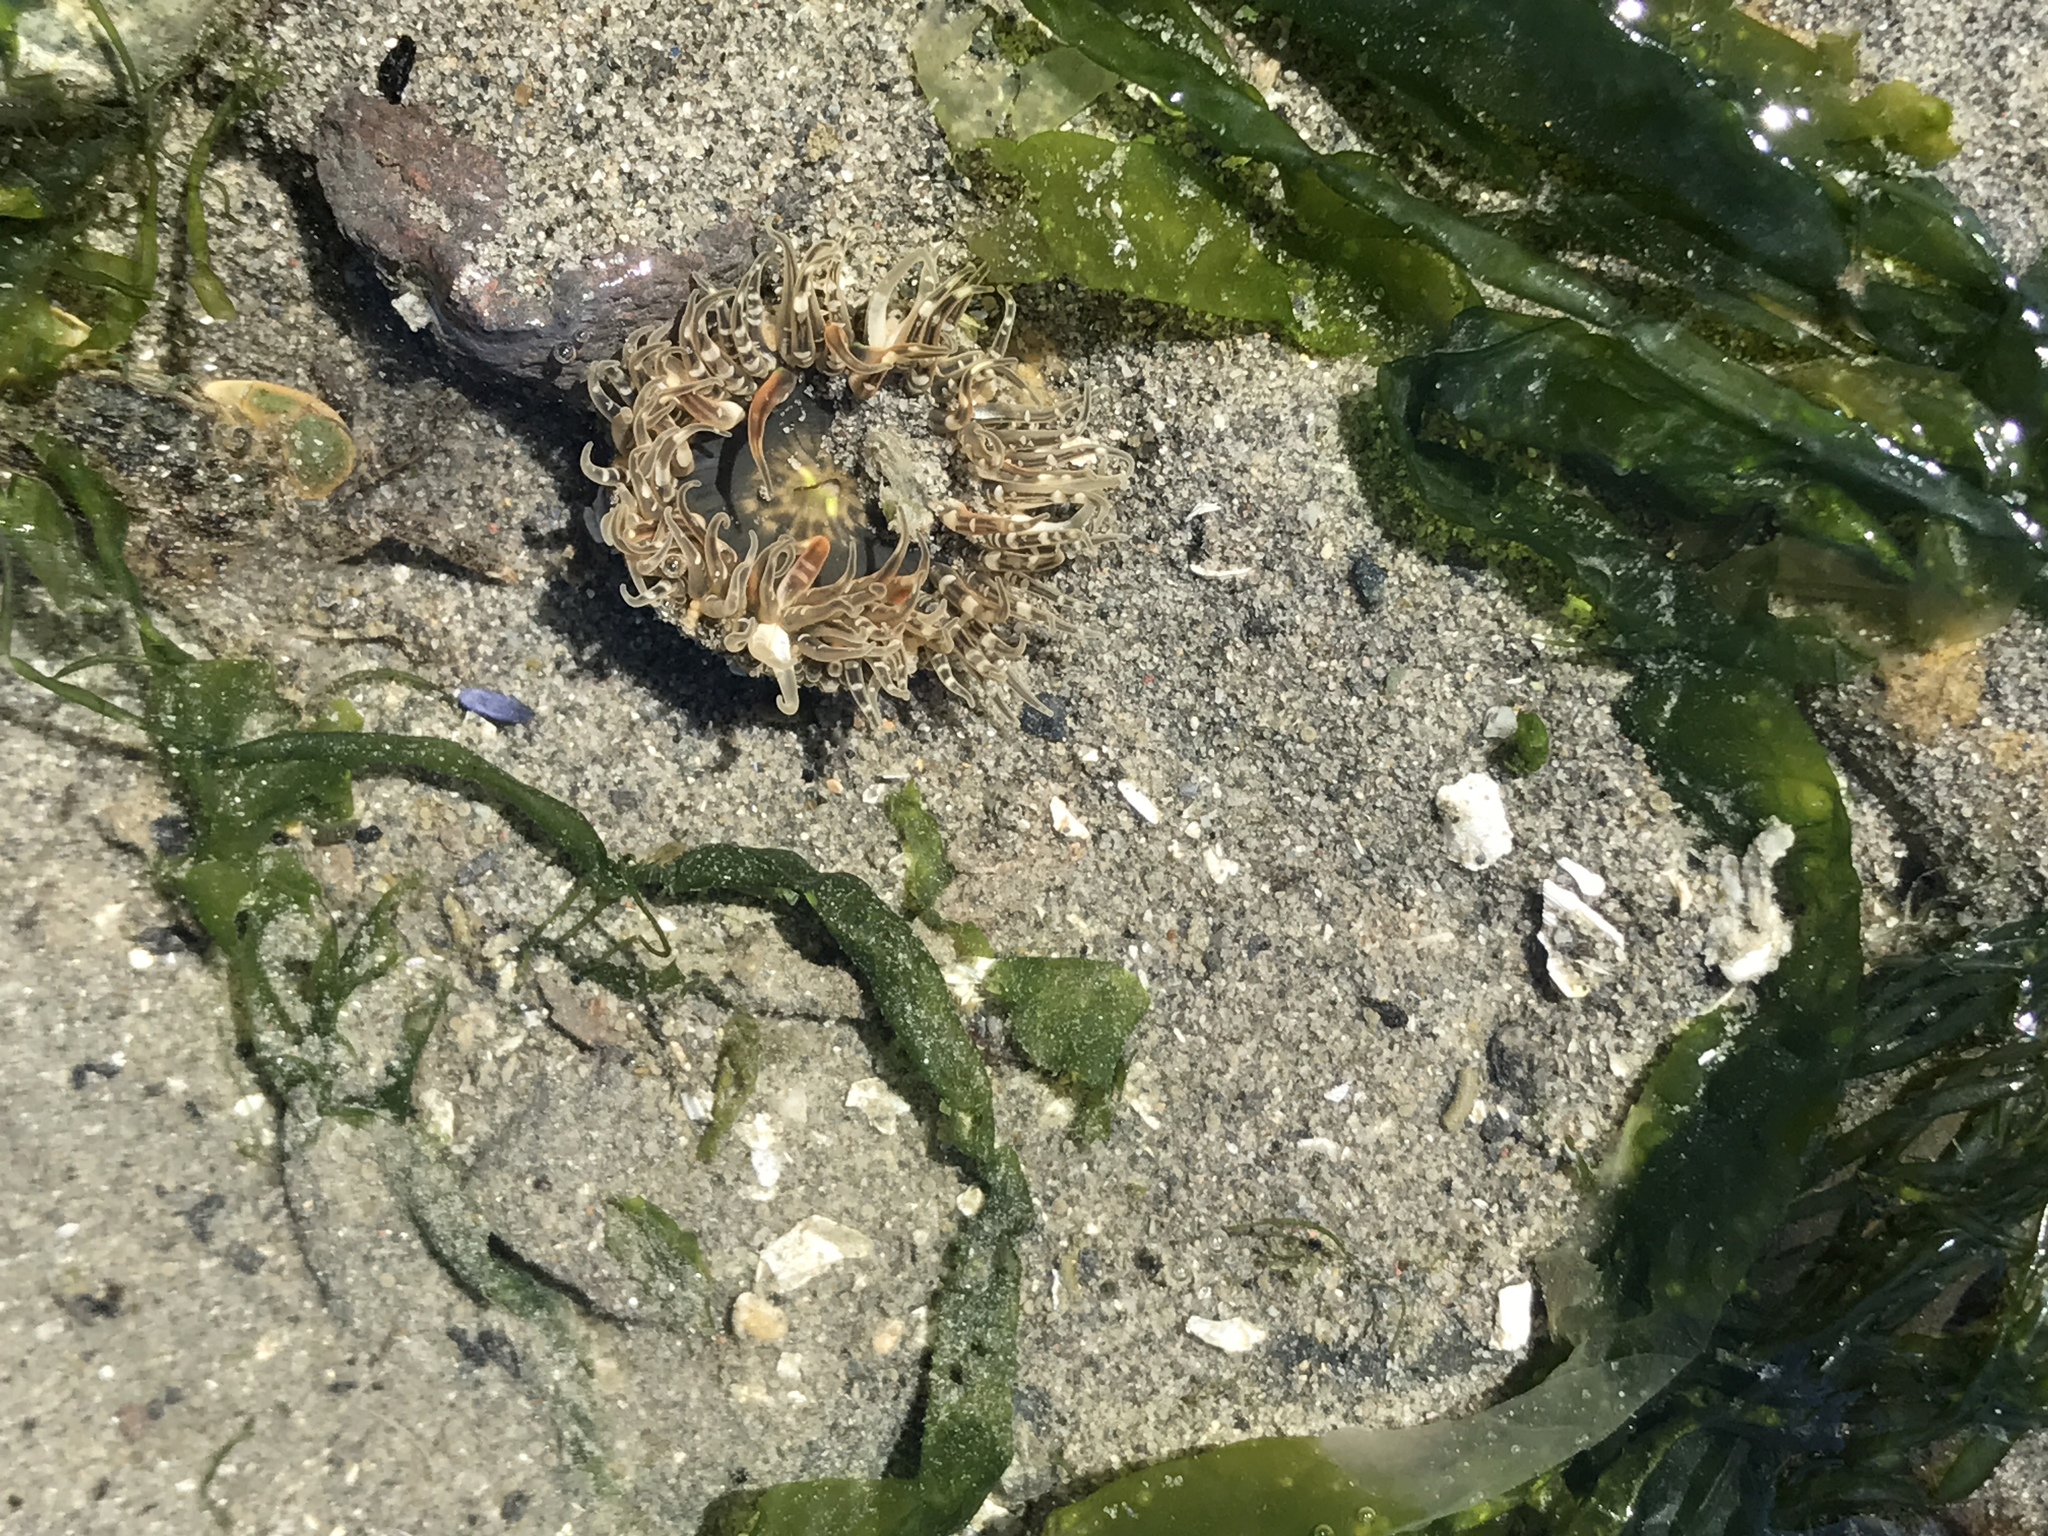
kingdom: Animalia
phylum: Cnidaria
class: Anthozoa
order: Actiniaria
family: Actiniidae
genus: Anthopleura
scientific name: Anthopleura artemisia
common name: Buried sea anemone
